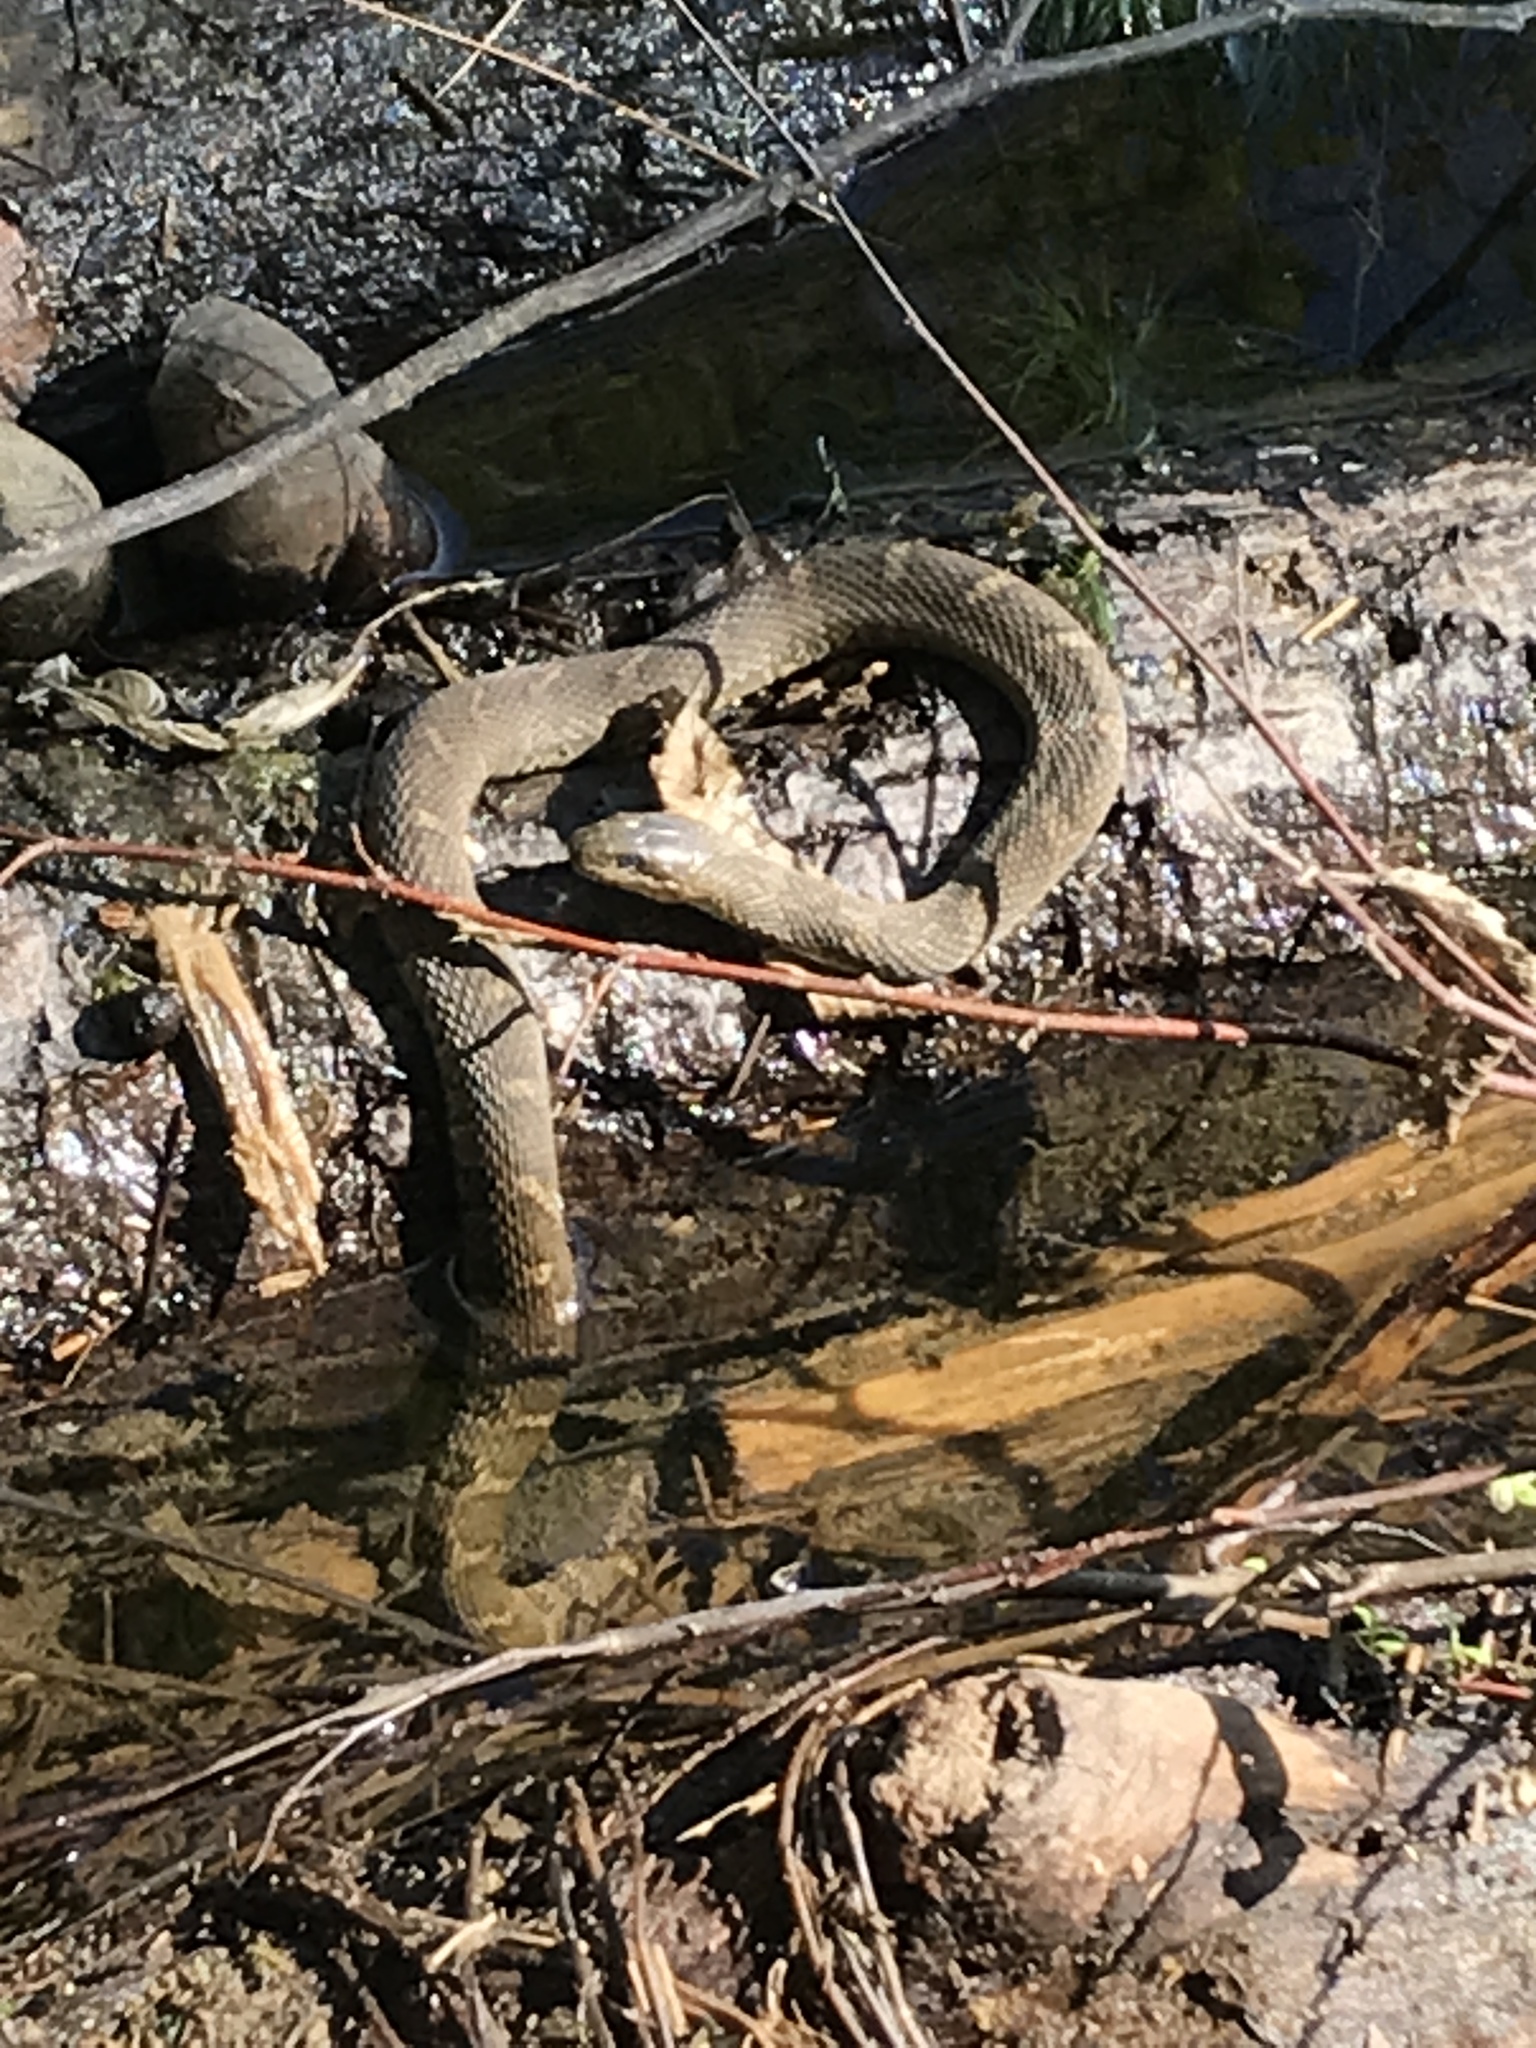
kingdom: Animalia
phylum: Chordata
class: Squamata
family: Colubridae
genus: Nerodia
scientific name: Nerodia sipedon
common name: Northern water snake
